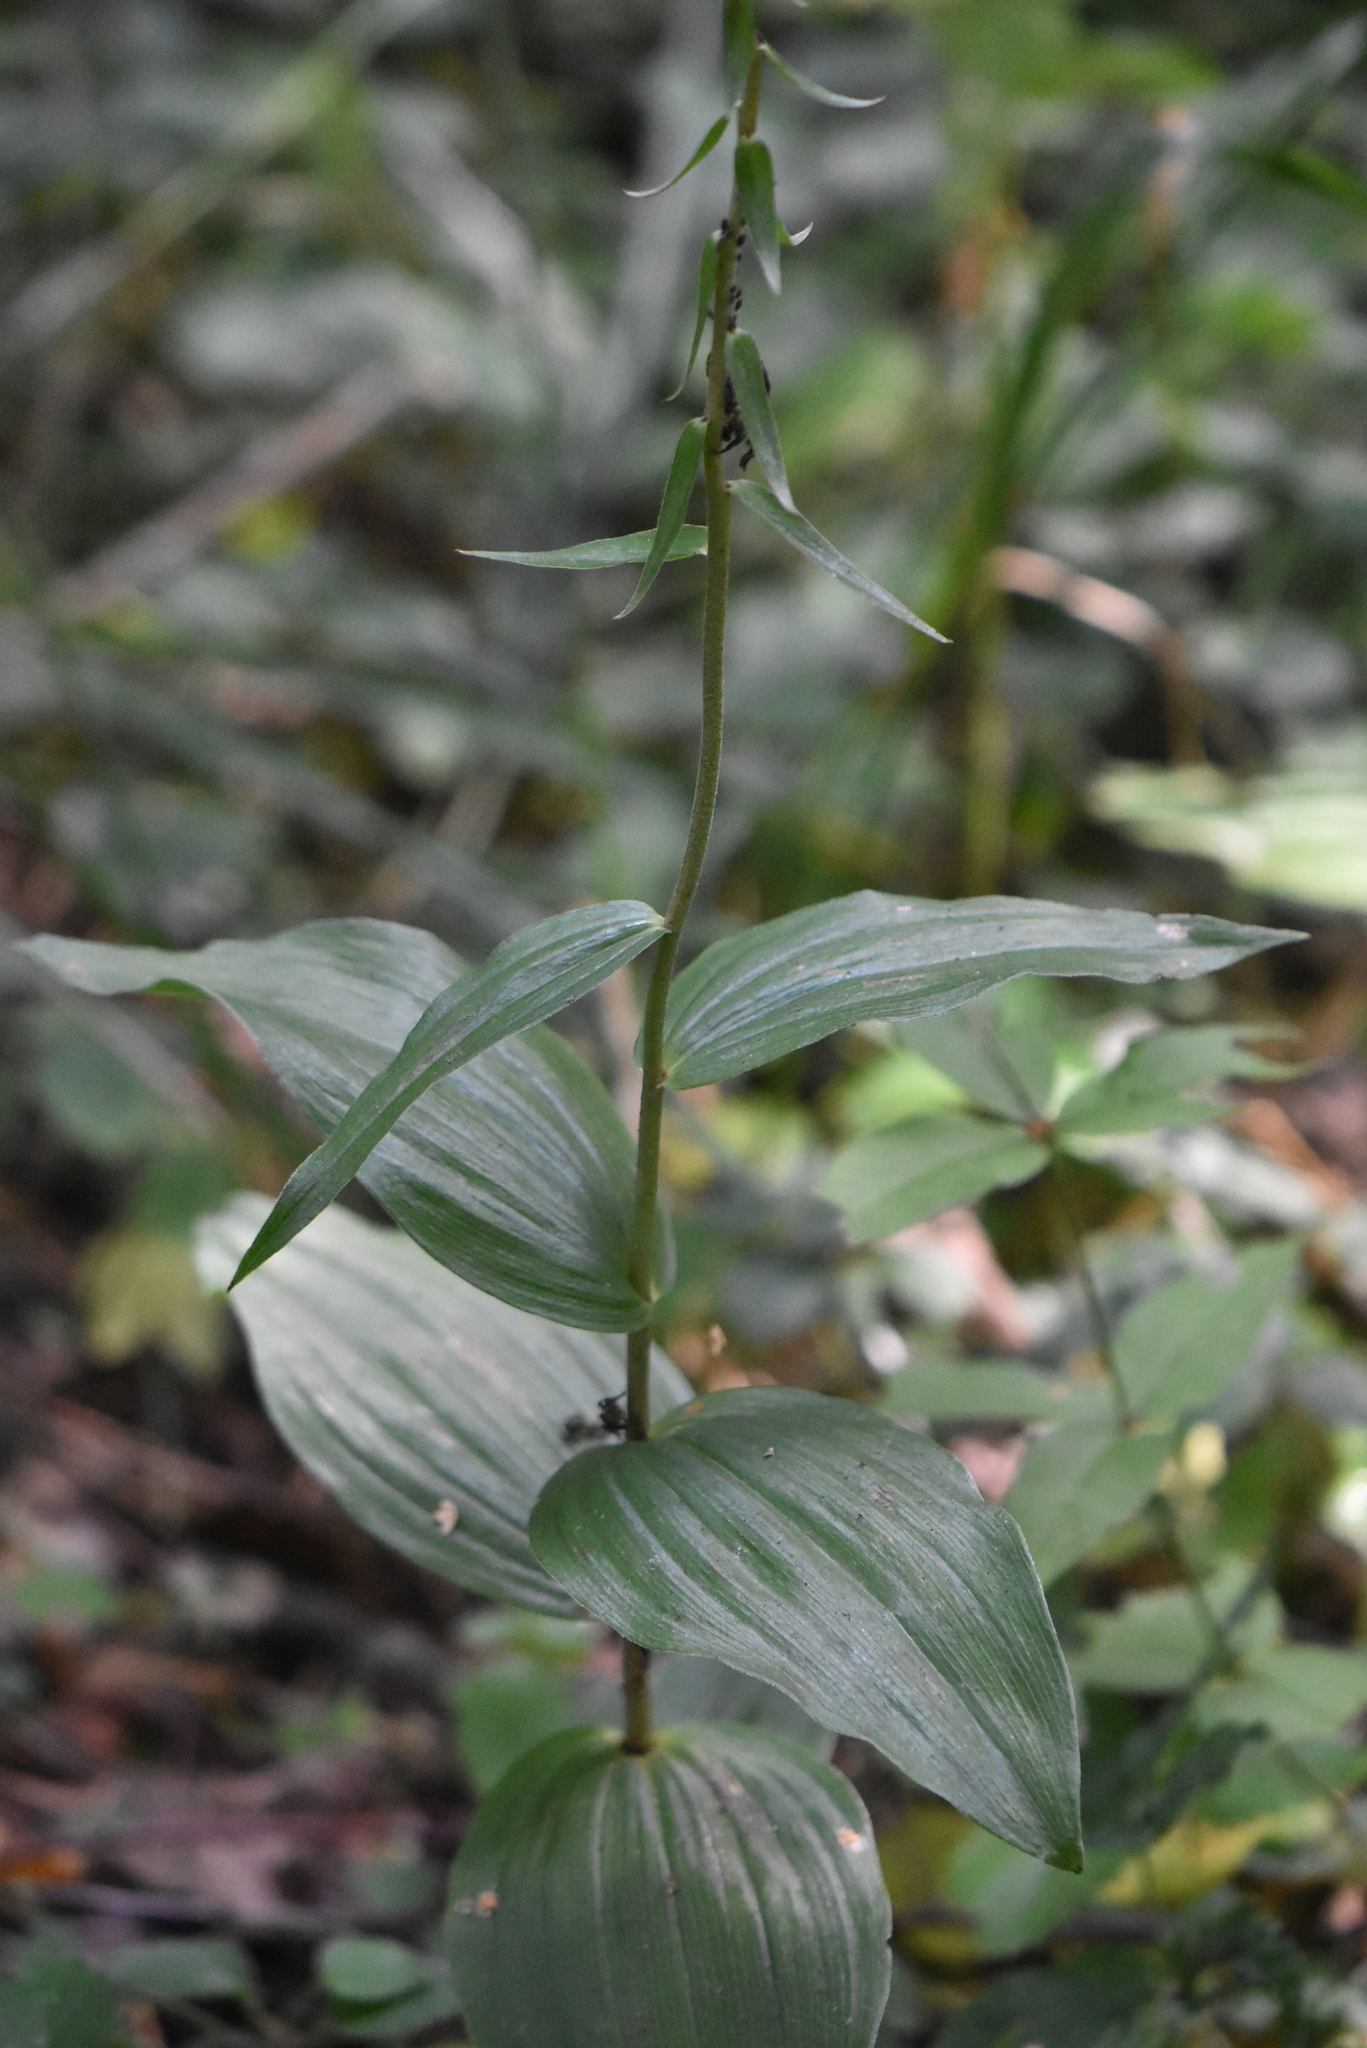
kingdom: Plantae
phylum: Tracheophyta
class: Liliopsida
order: Asparagales
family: Orchidaceae
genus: Epipactis
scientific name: Epipactis helleborine
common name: Broad-leaved helleborine
